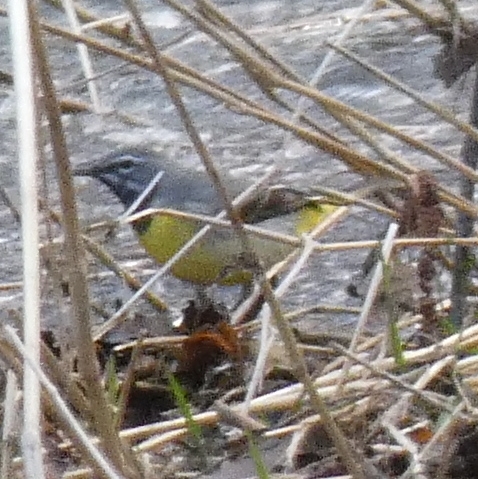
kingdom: Animalia
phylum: Chordata
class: Aves
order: Passeriformes
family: Motacillidae
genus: Motacilla
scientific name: Motacilla cinerea
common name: Grey wagtail
